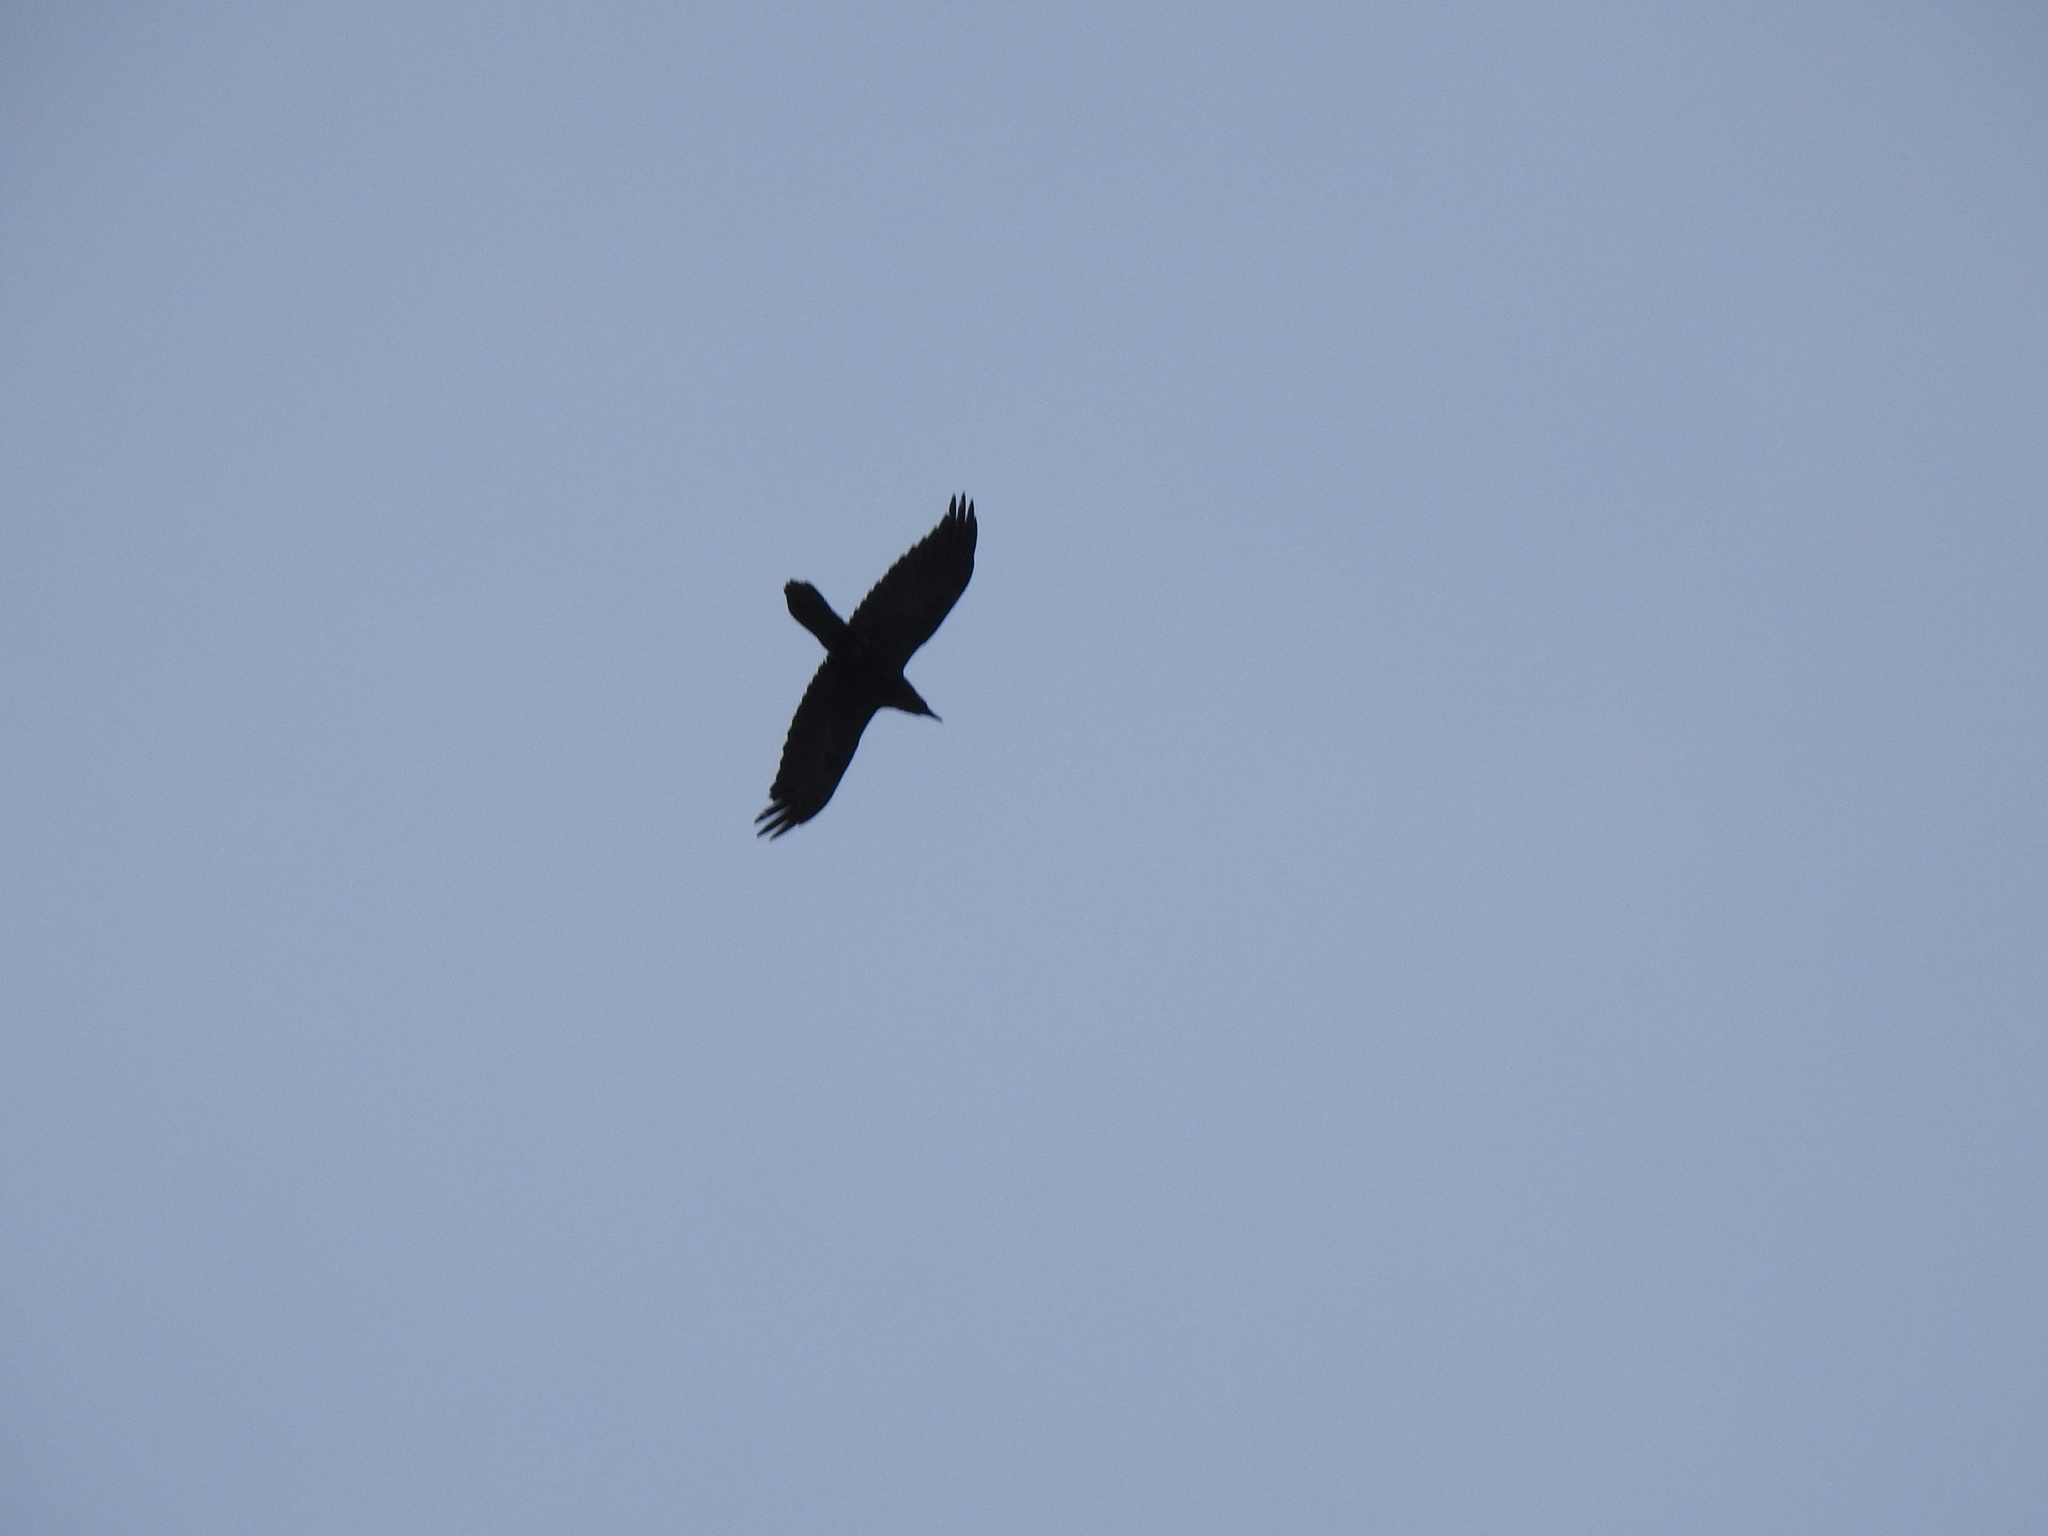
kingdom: Animalia
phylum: Chordata
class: Aves
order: Passeriformes
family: Corvidae
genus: Corvus
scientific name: Corvus corax
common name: Common raven
